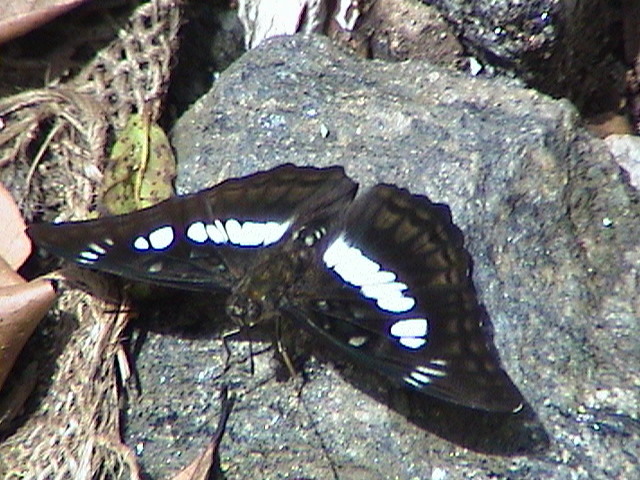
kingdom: Animalia
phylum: Arthropoda
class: Insecta
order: Lepidoptera
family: Nymphalidae
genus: Parathyma
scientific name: Parathyma ranga
